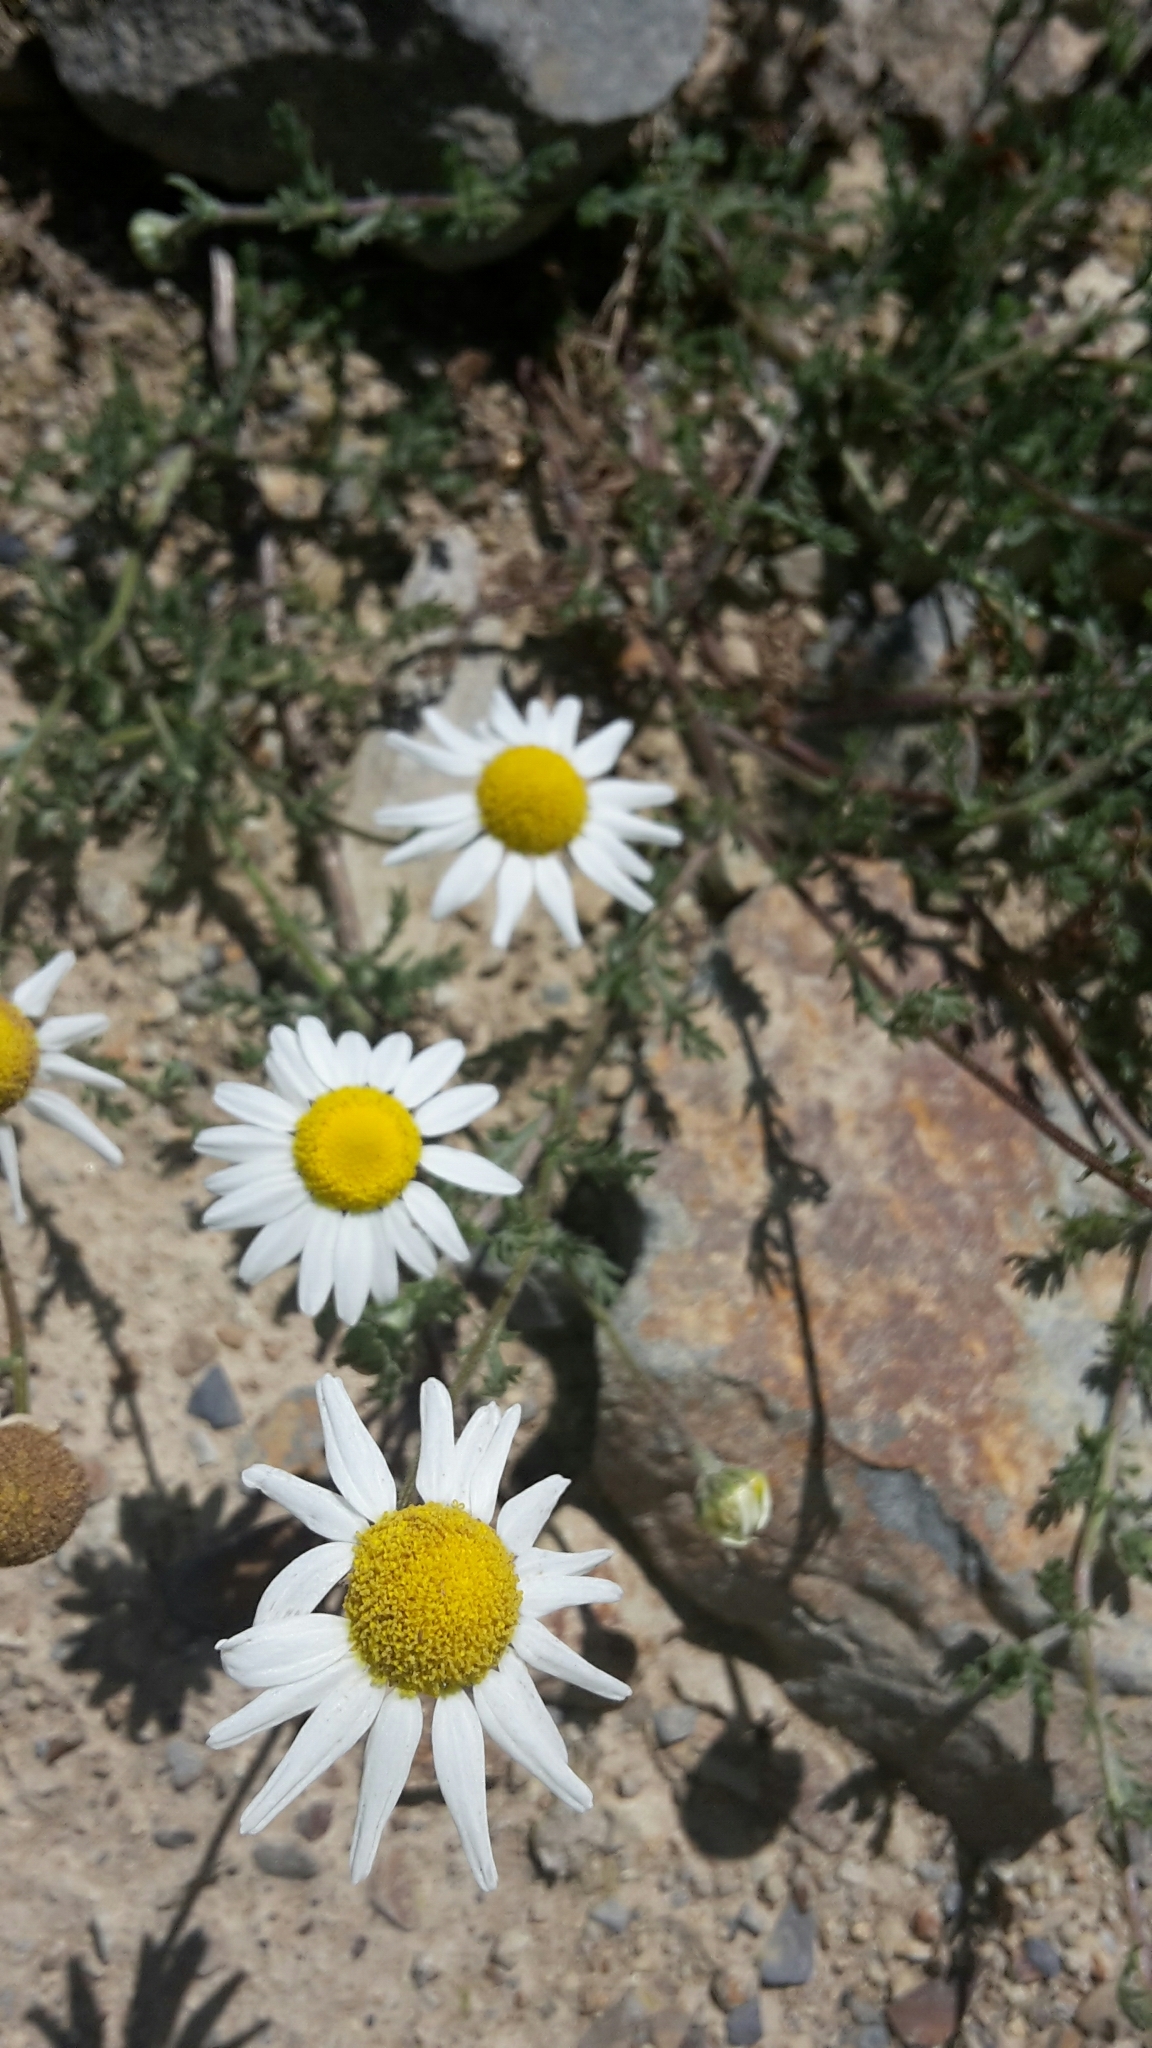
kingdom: Plantae
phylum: Tracheophyta
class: Magnoliopsida
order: Asterales
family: Asteraceae
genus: Leucanthemum
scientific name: Leucanthemum vulgare
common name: Oxeye daisy
